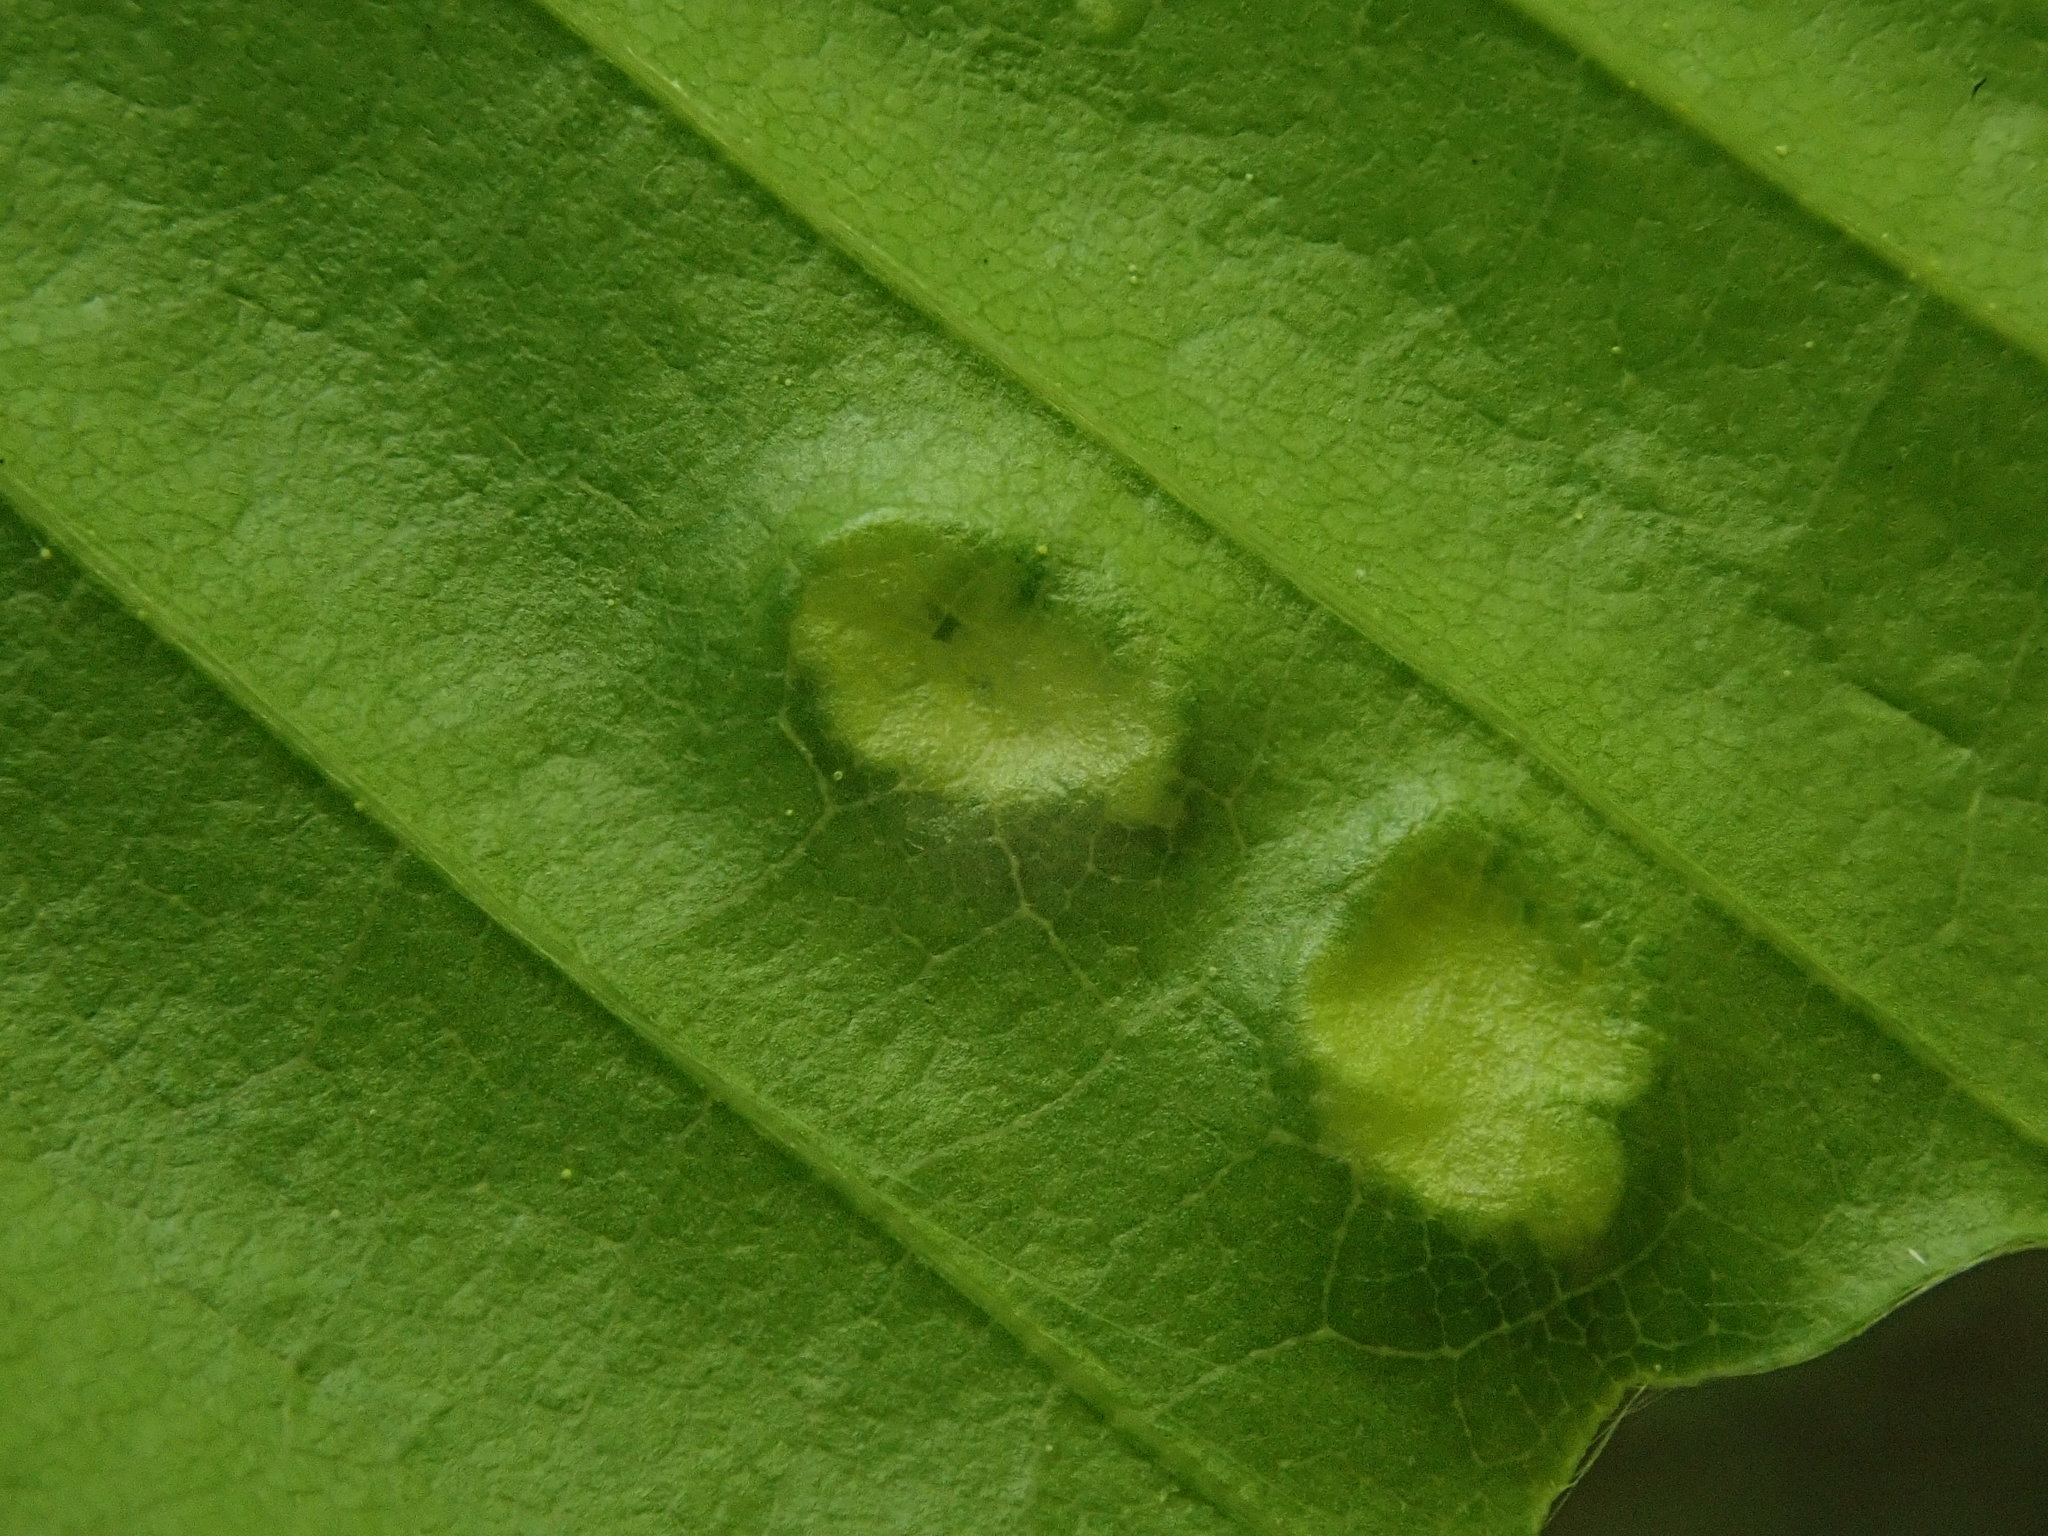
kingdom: Animalia
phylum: Arthropoda
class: Arachnida
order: Trombidiformes
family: Eriophyidae
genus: Acalitus
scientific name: Acalitus
